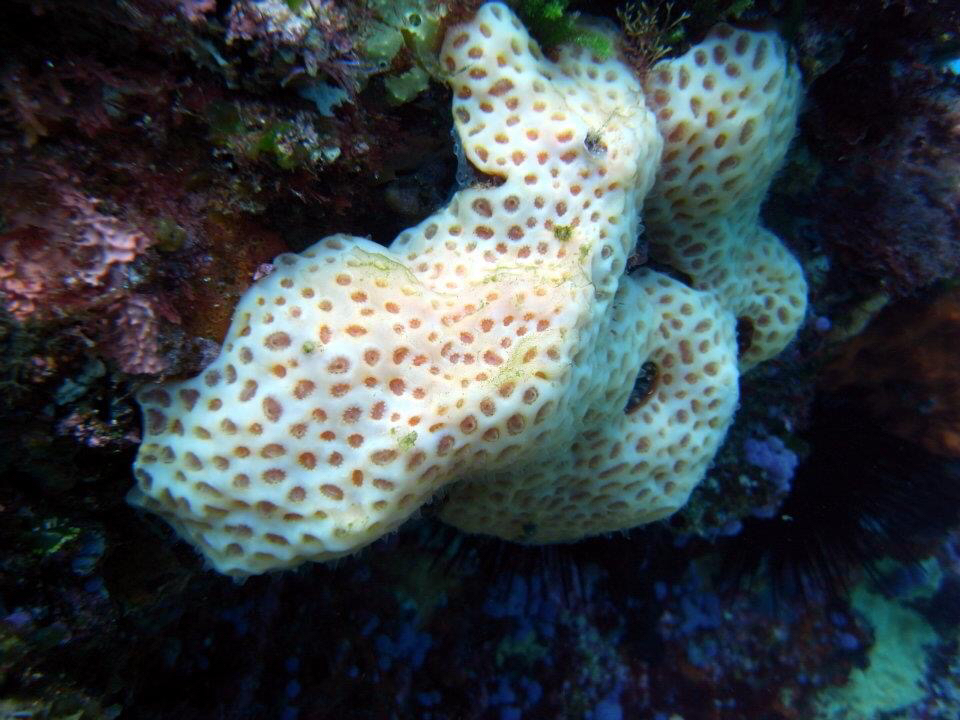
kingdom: Animalia
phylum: Chordata
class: Ascidiacea
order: Aplousobranchia
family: Polyclinidae
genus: Aplidium
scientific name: Aplidium
